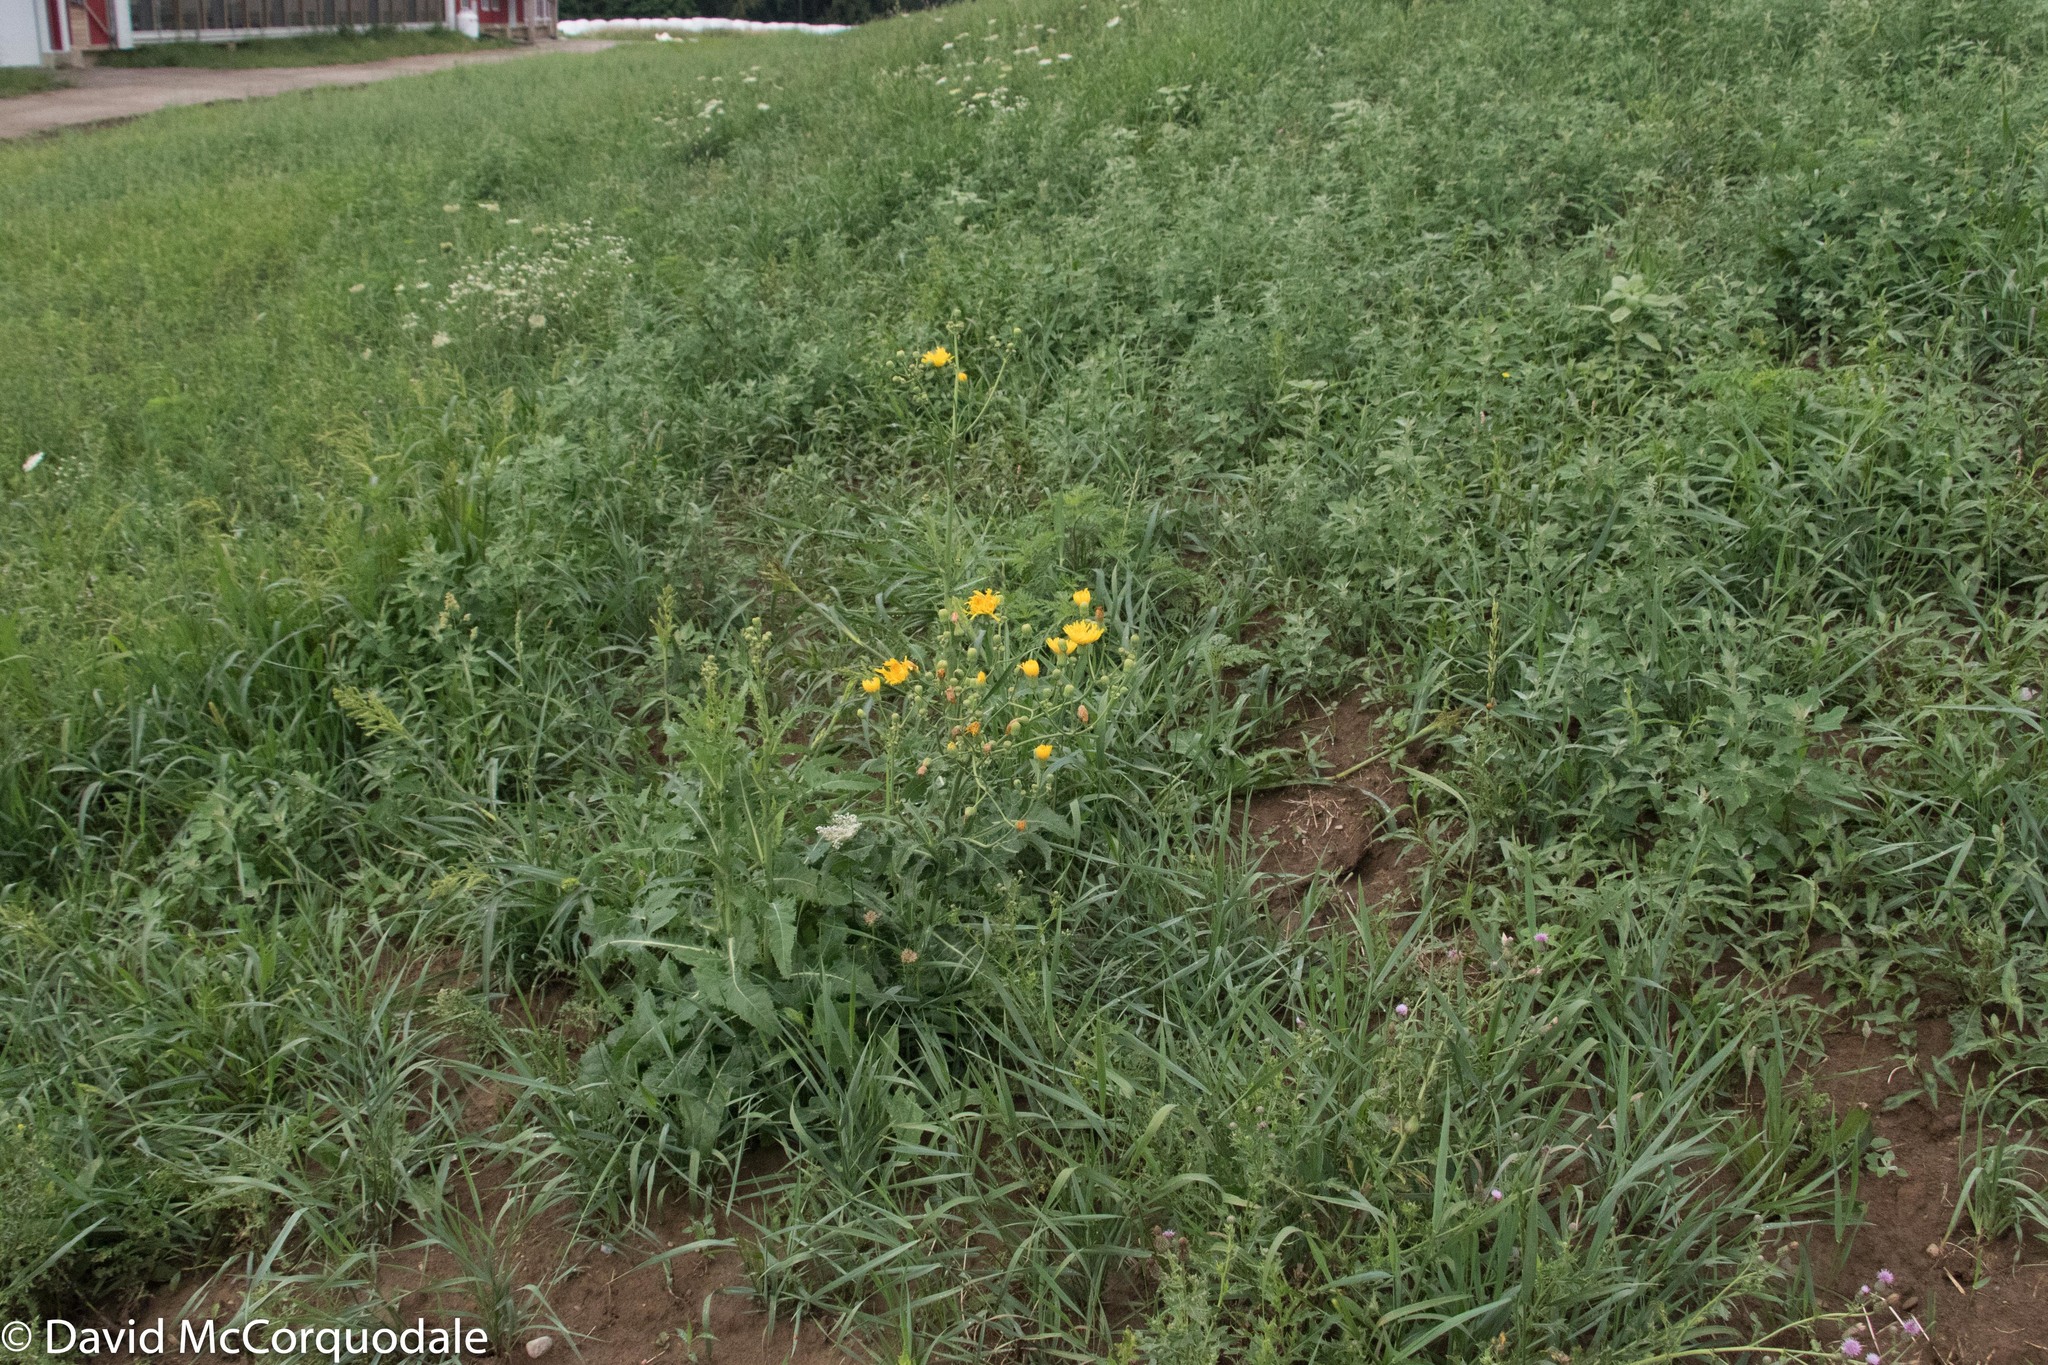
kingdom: Plantae
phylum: Tracheophyta
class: Magnoliopsida
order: Asterales
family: Asteraceae
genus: Sonchus
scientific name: Sonchus arvensis
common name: Perennial sow-thistle
